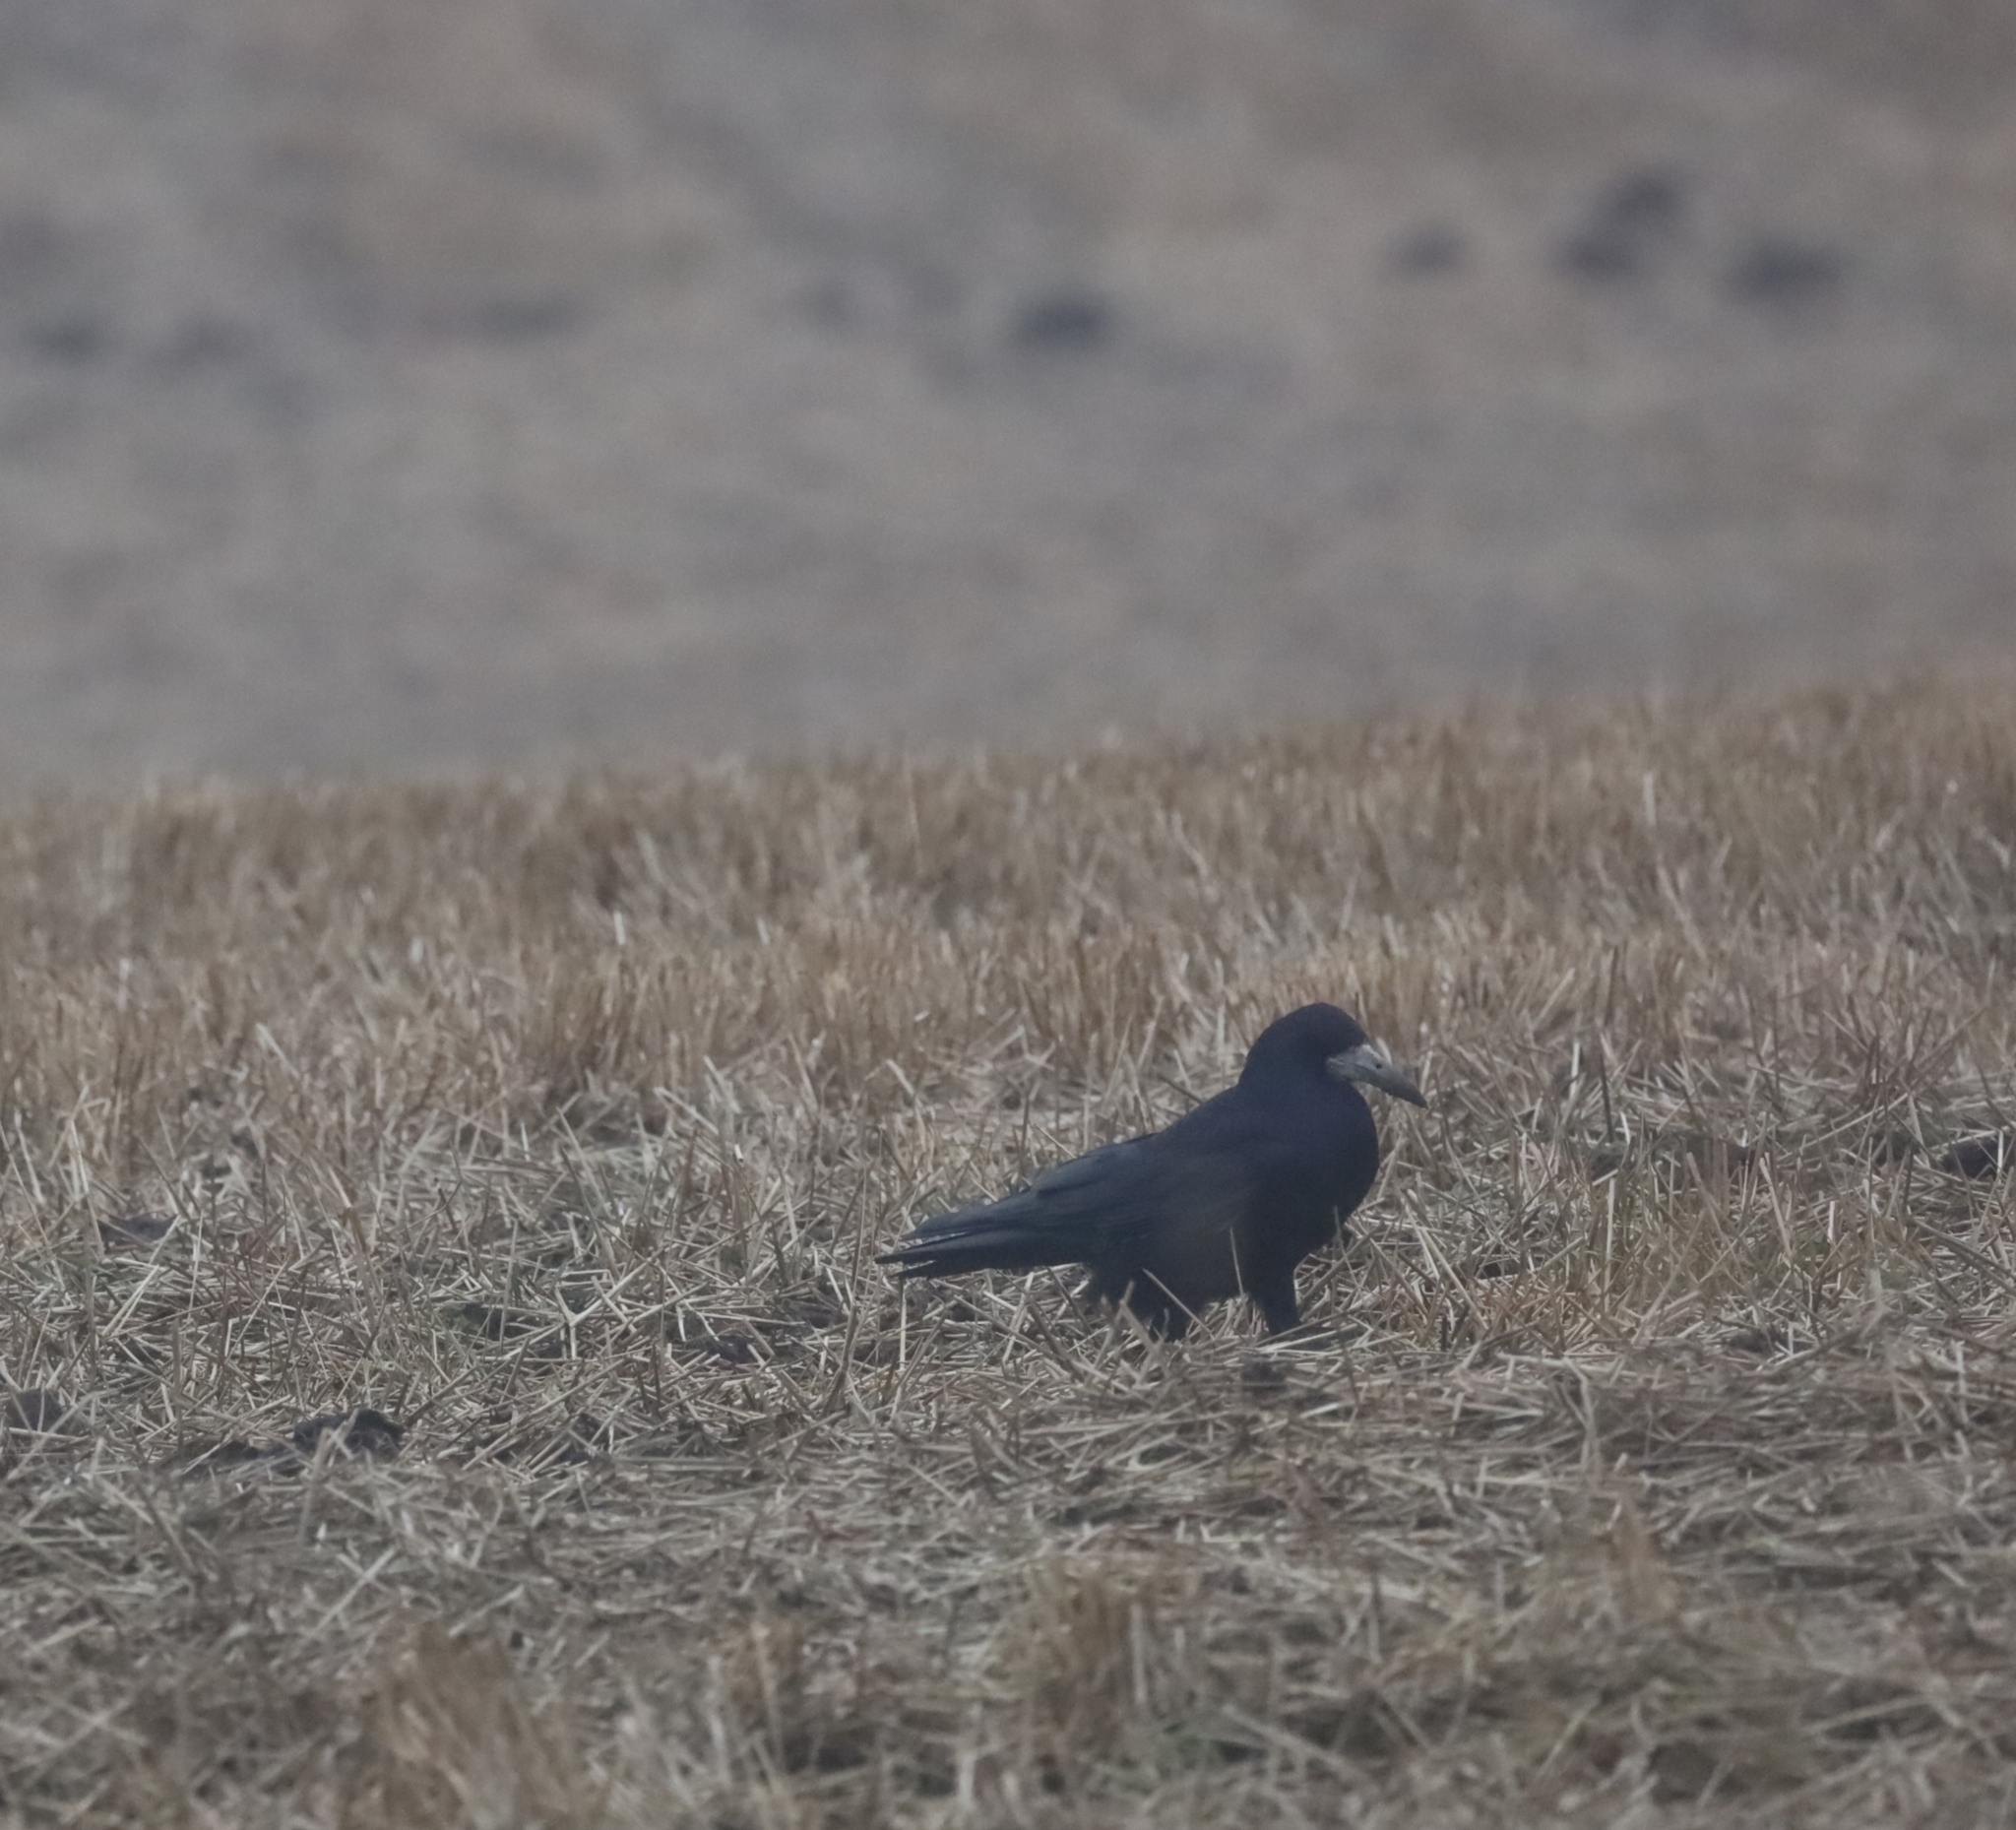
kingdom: Animalia
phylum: Chordata
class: Aves
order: Passeriformes
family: Corvidae
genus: Corvus
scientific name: Corvus frugilegus
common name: Rook
